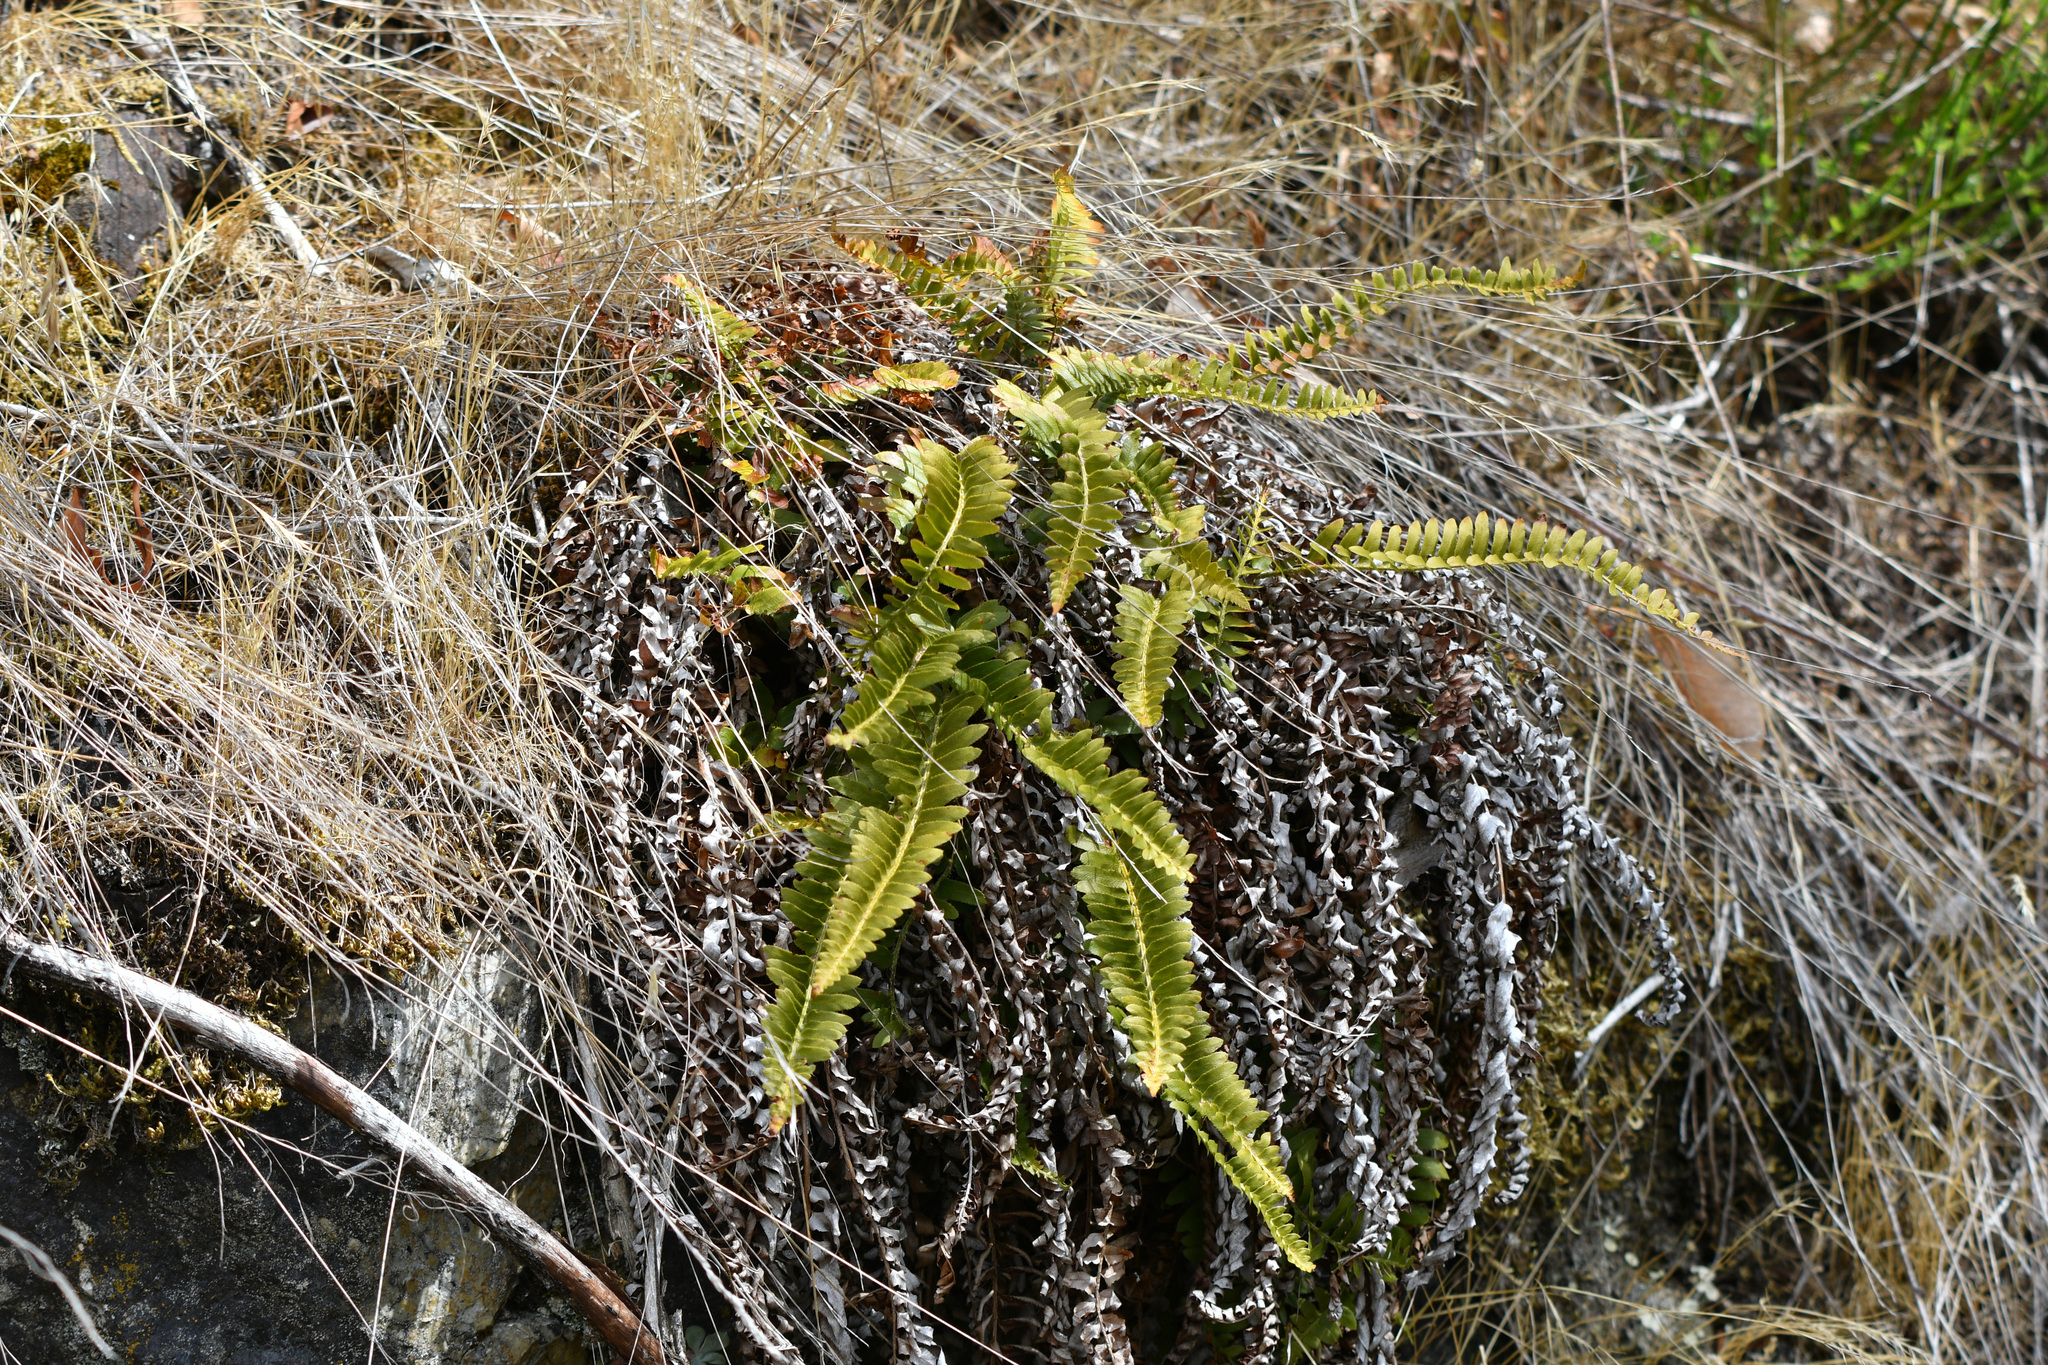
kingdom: Plantae
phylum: Tracheophyta
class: Polypodiopsida
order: Polypodiales
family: Dryopteridaceae
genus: Polystichum
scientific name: Polystichum imbricans
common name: Dwarf western sword fern
